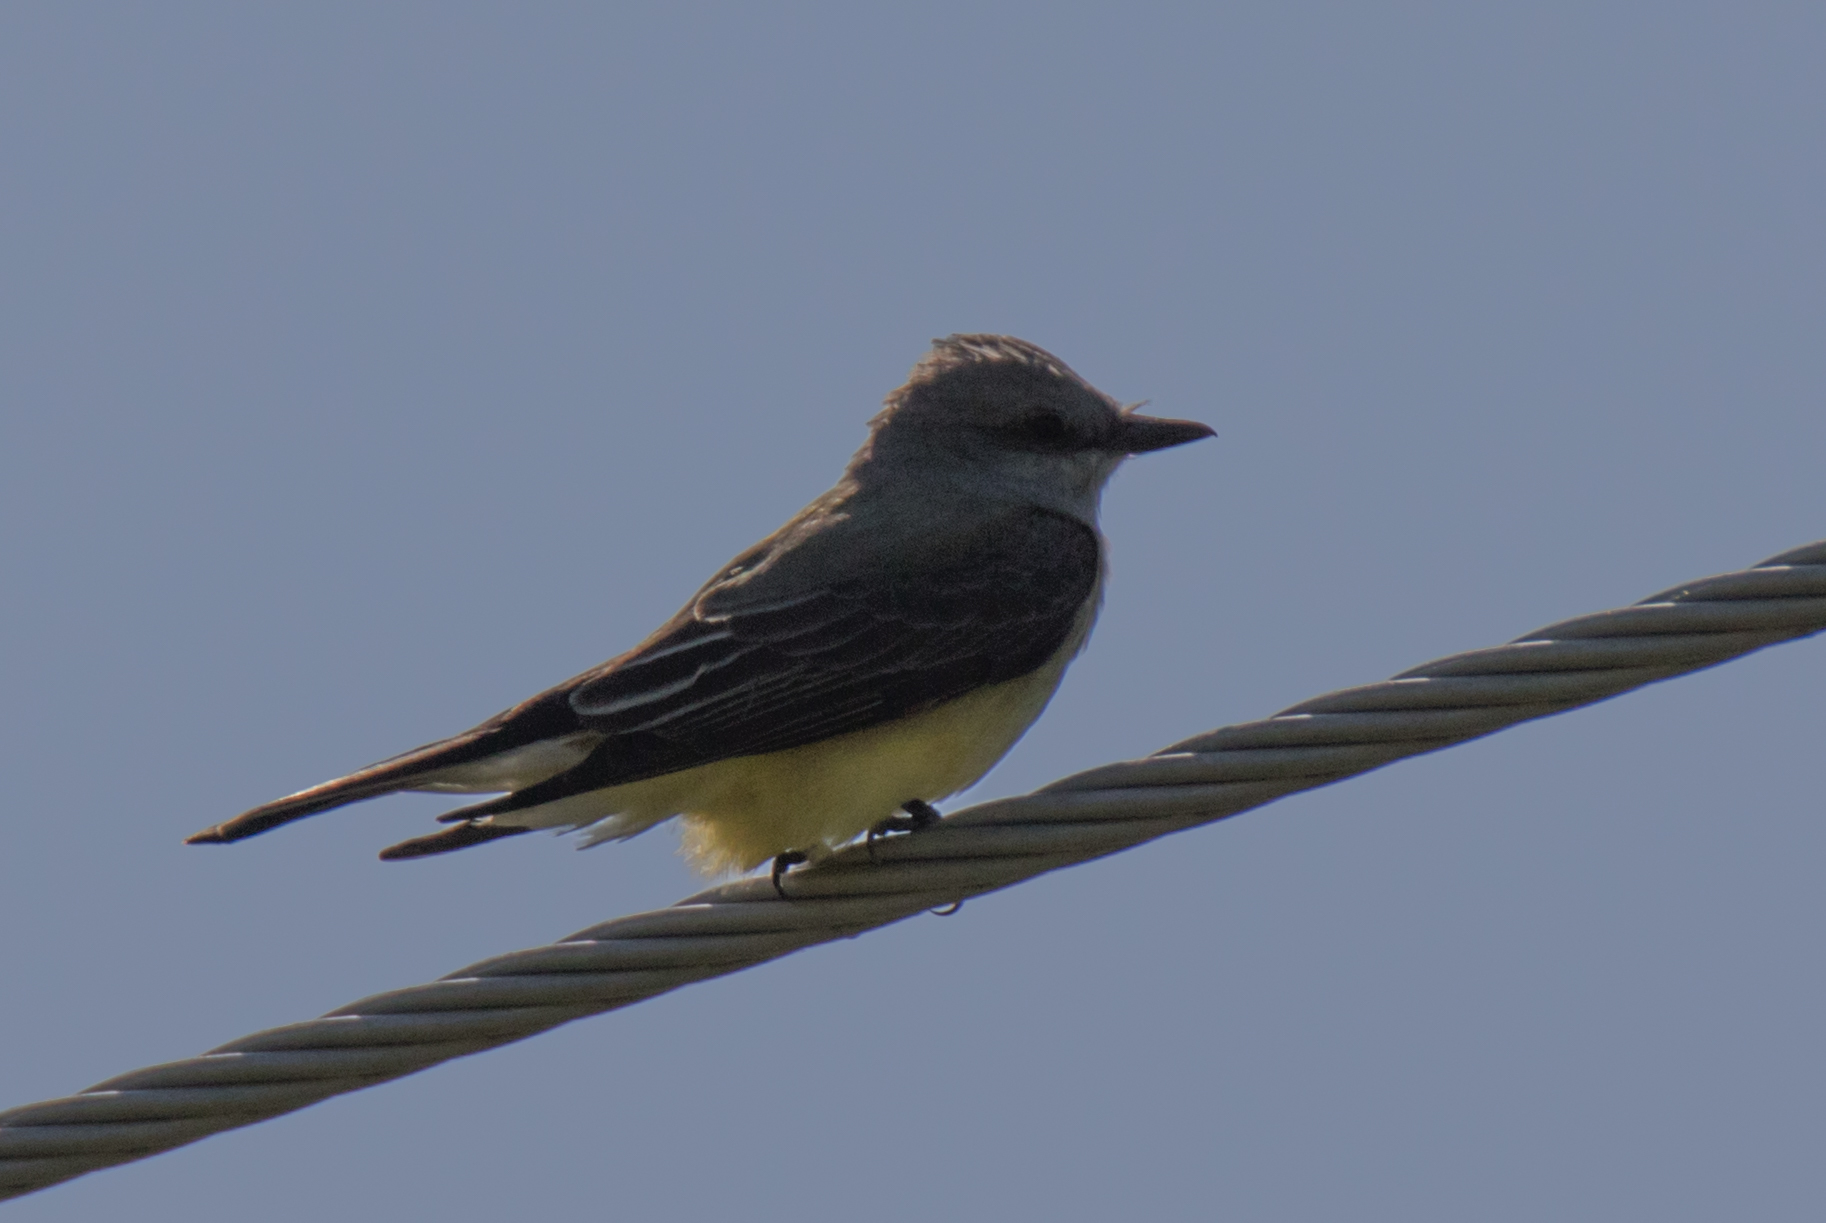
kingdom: Animalia
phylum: Chordata
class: Aves
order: Passeriformes
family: Tyrannidae
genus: Tyrannus
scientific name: Tyrannus verticalis
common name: Western kingbird
